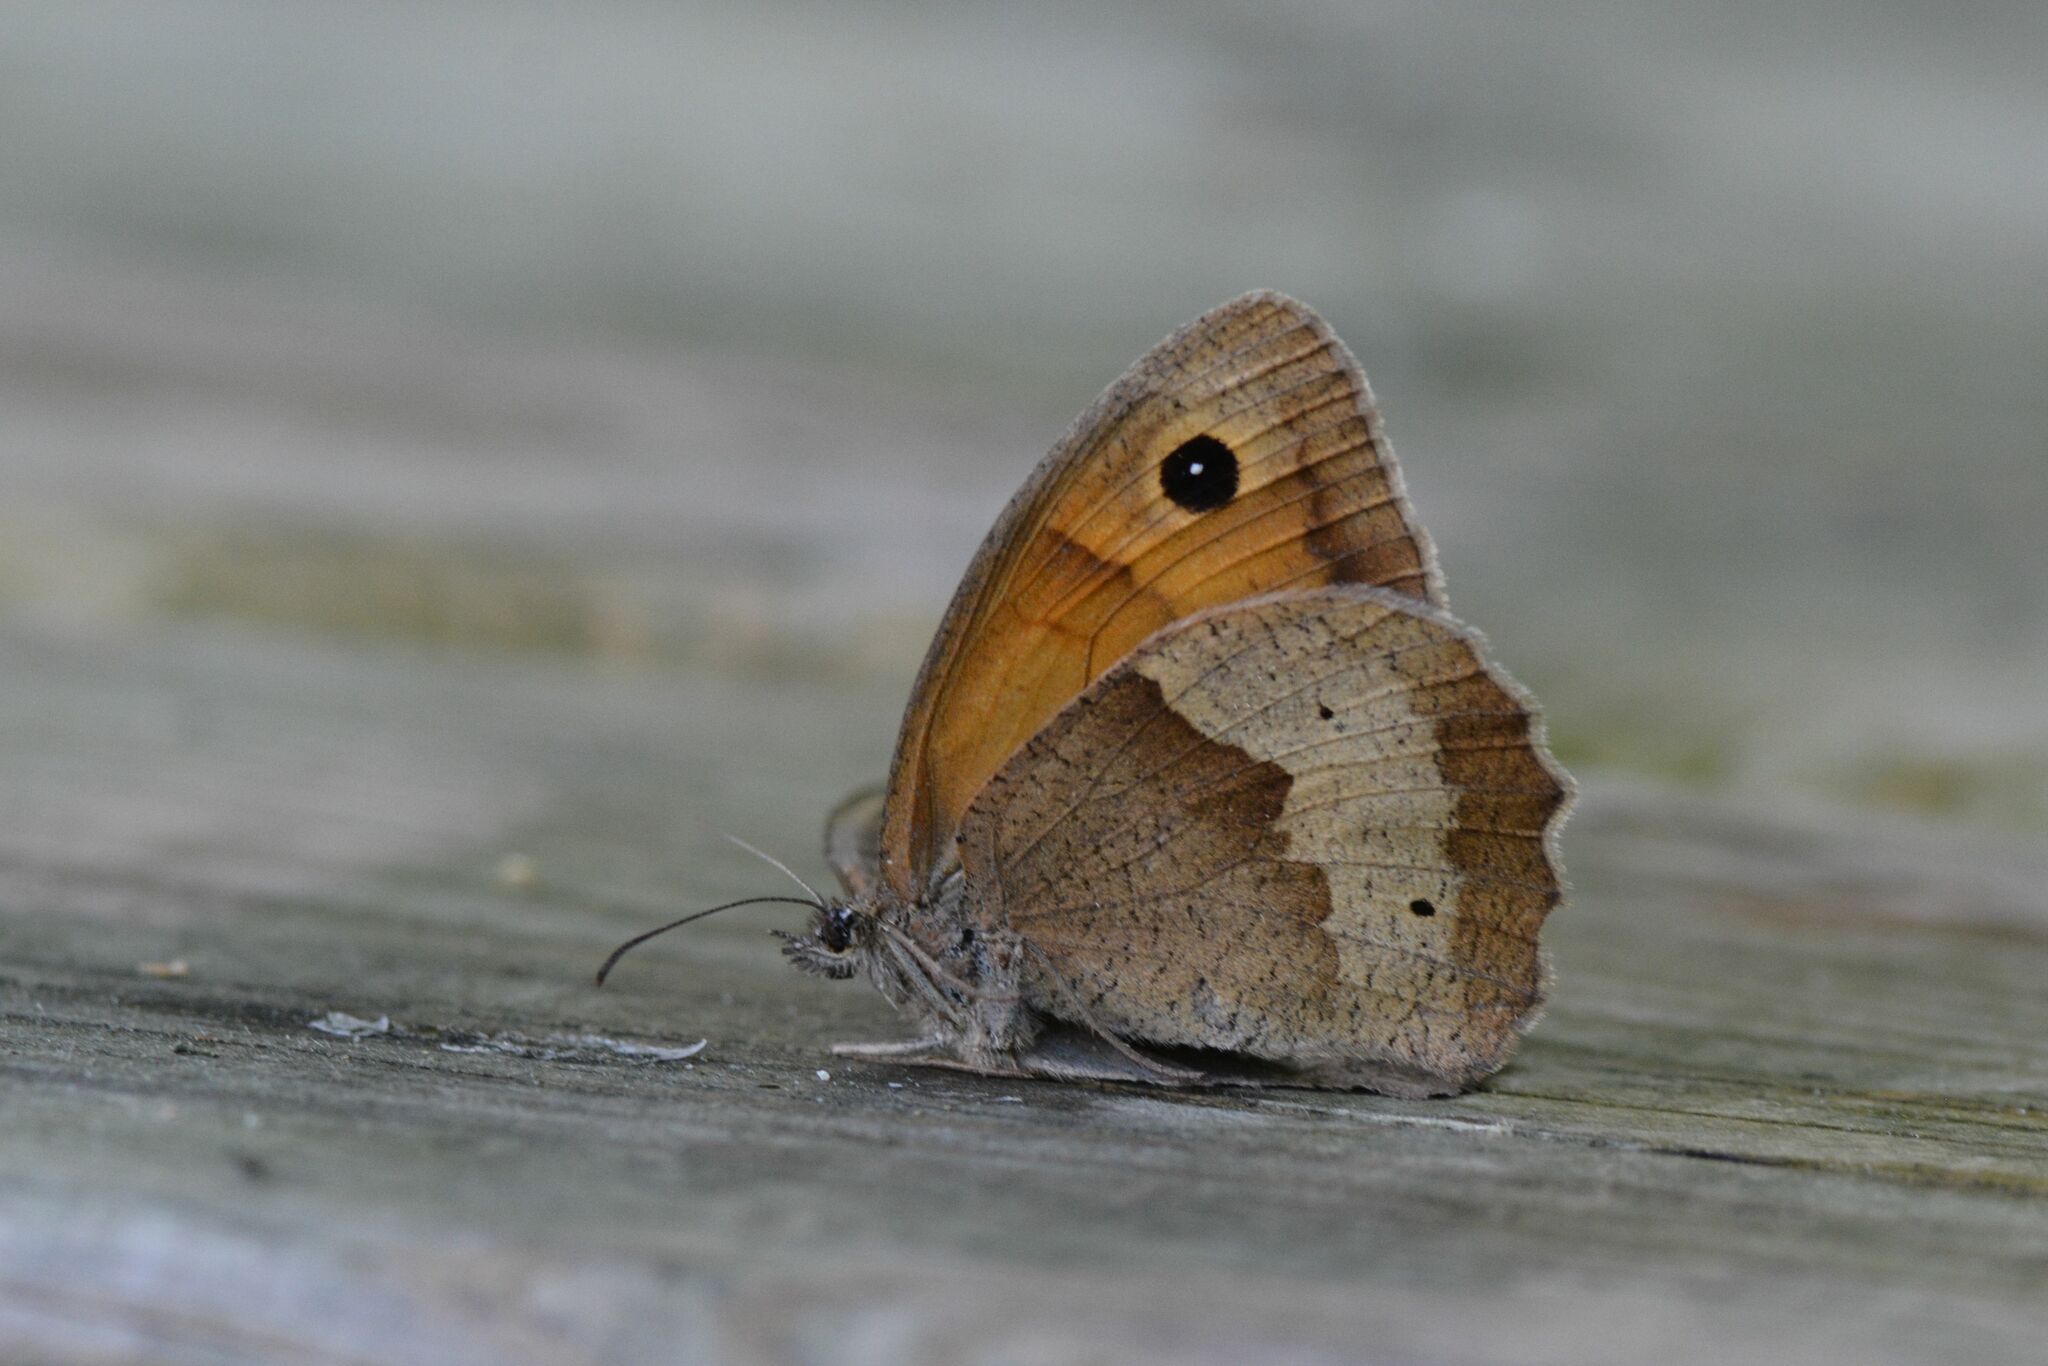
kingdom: Animalia
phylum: Arthropoda
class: Insecta
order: Lepidoptera
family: Nymphalidae
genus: Maniola
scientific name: Maniola jurtina
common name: Meadow brown
